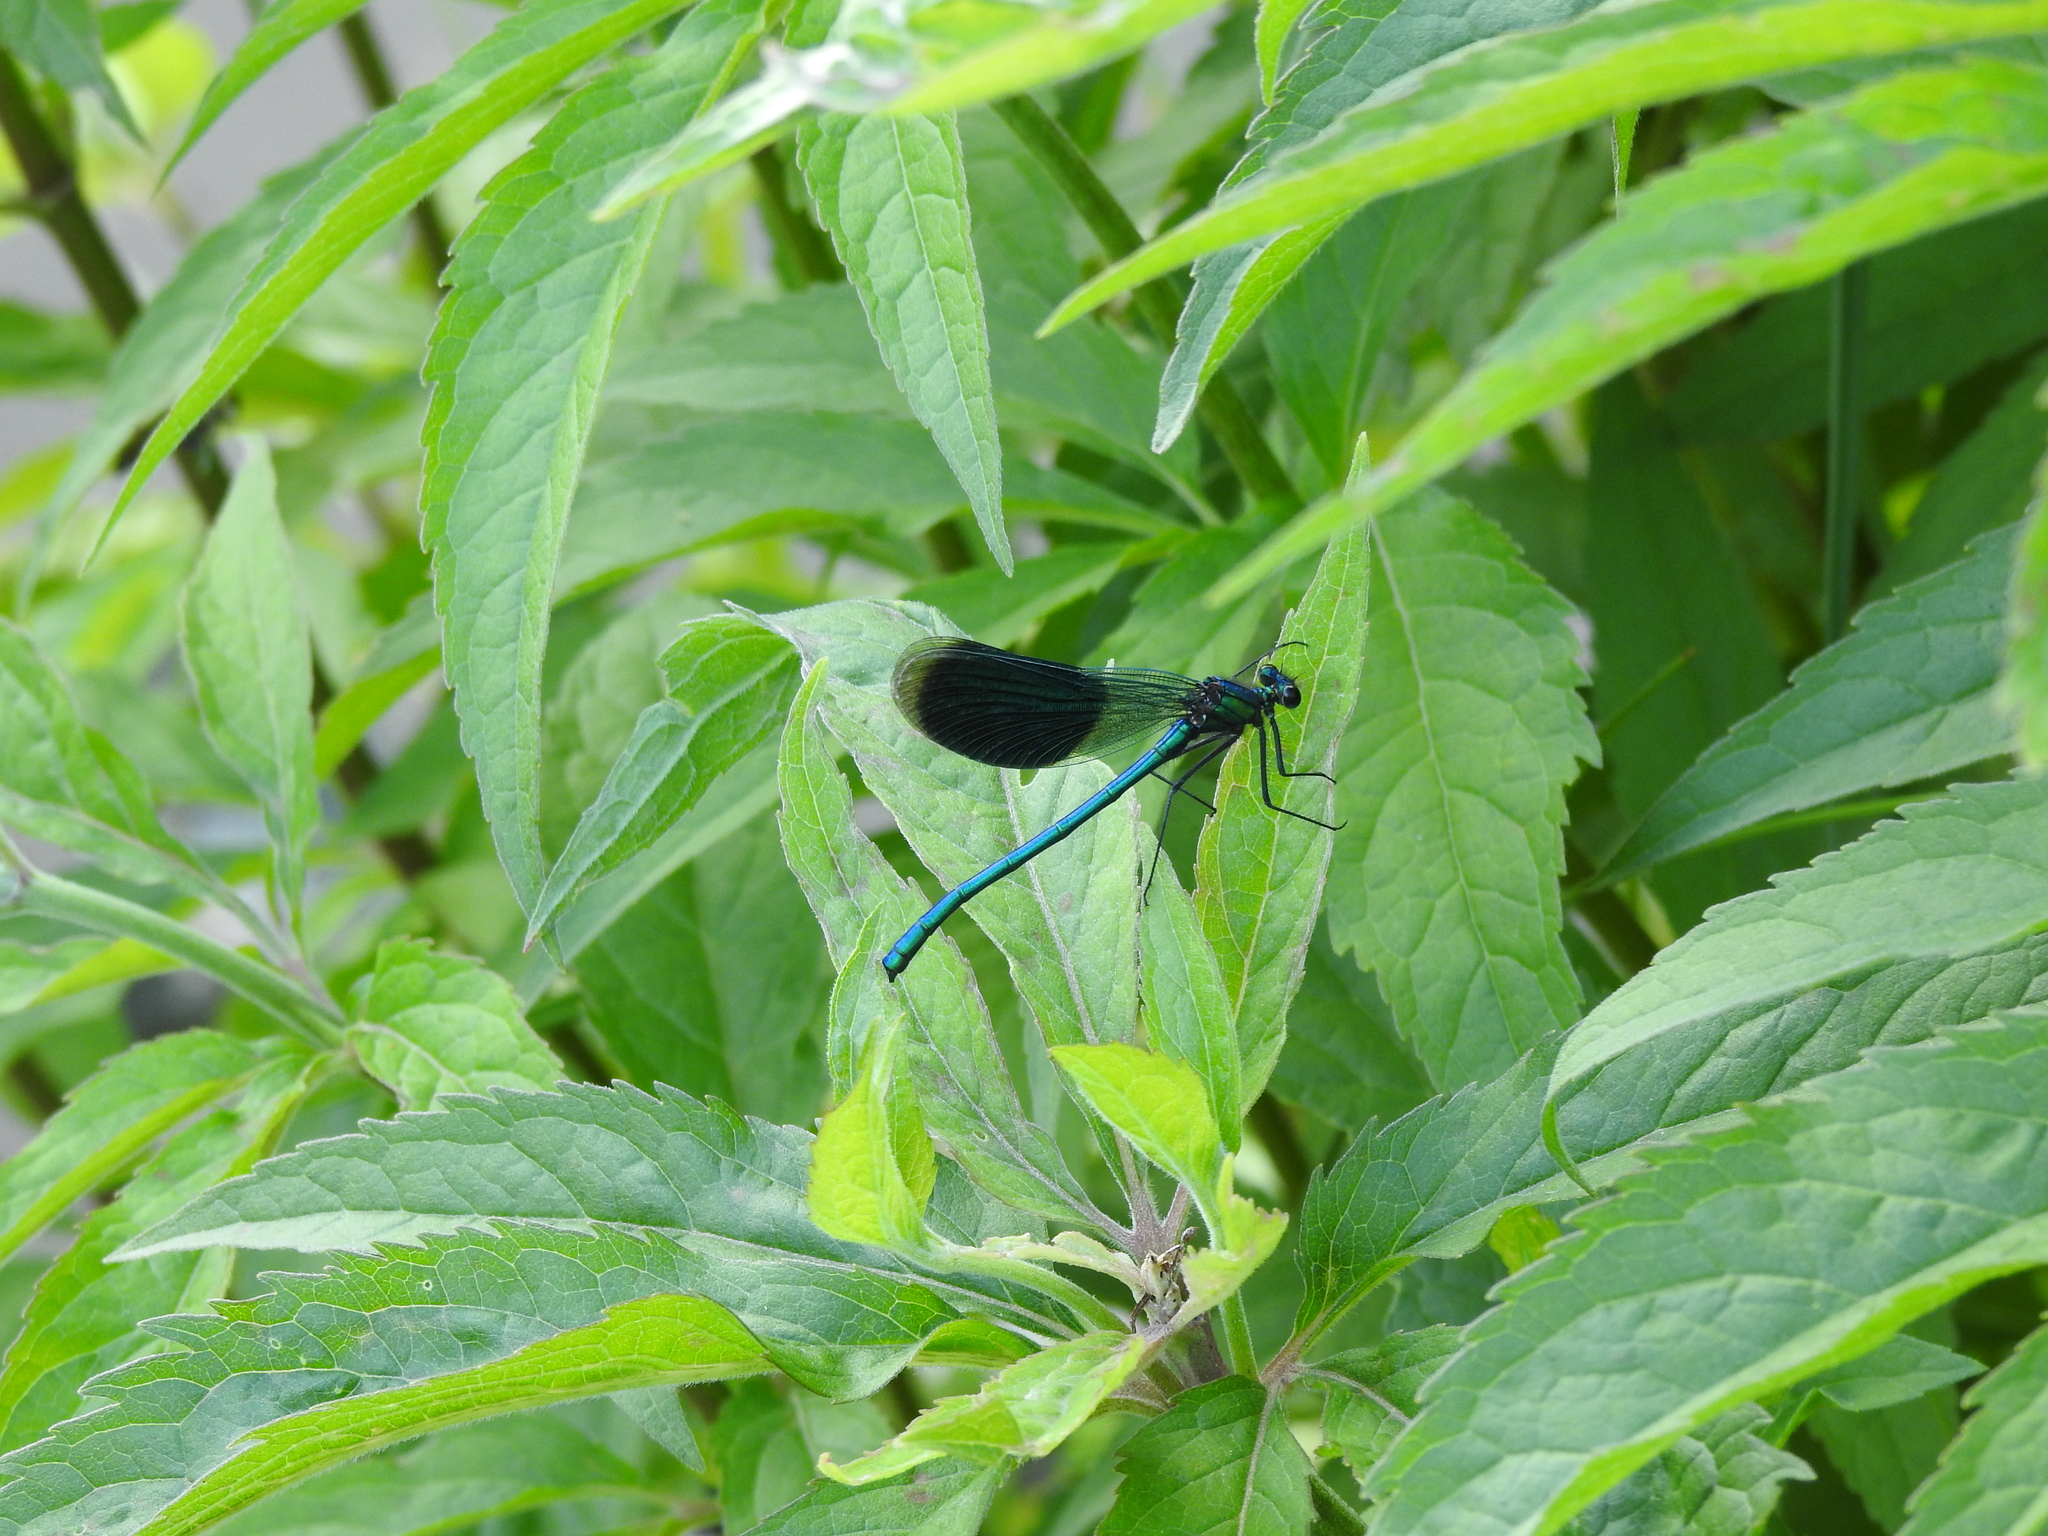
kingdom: Animalia
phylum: Arthropoda
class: Insecta
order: Odonata
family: Calopterygidae
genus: Calopteryx
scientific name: Calopteryx splendens
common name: Banded demoiselle
